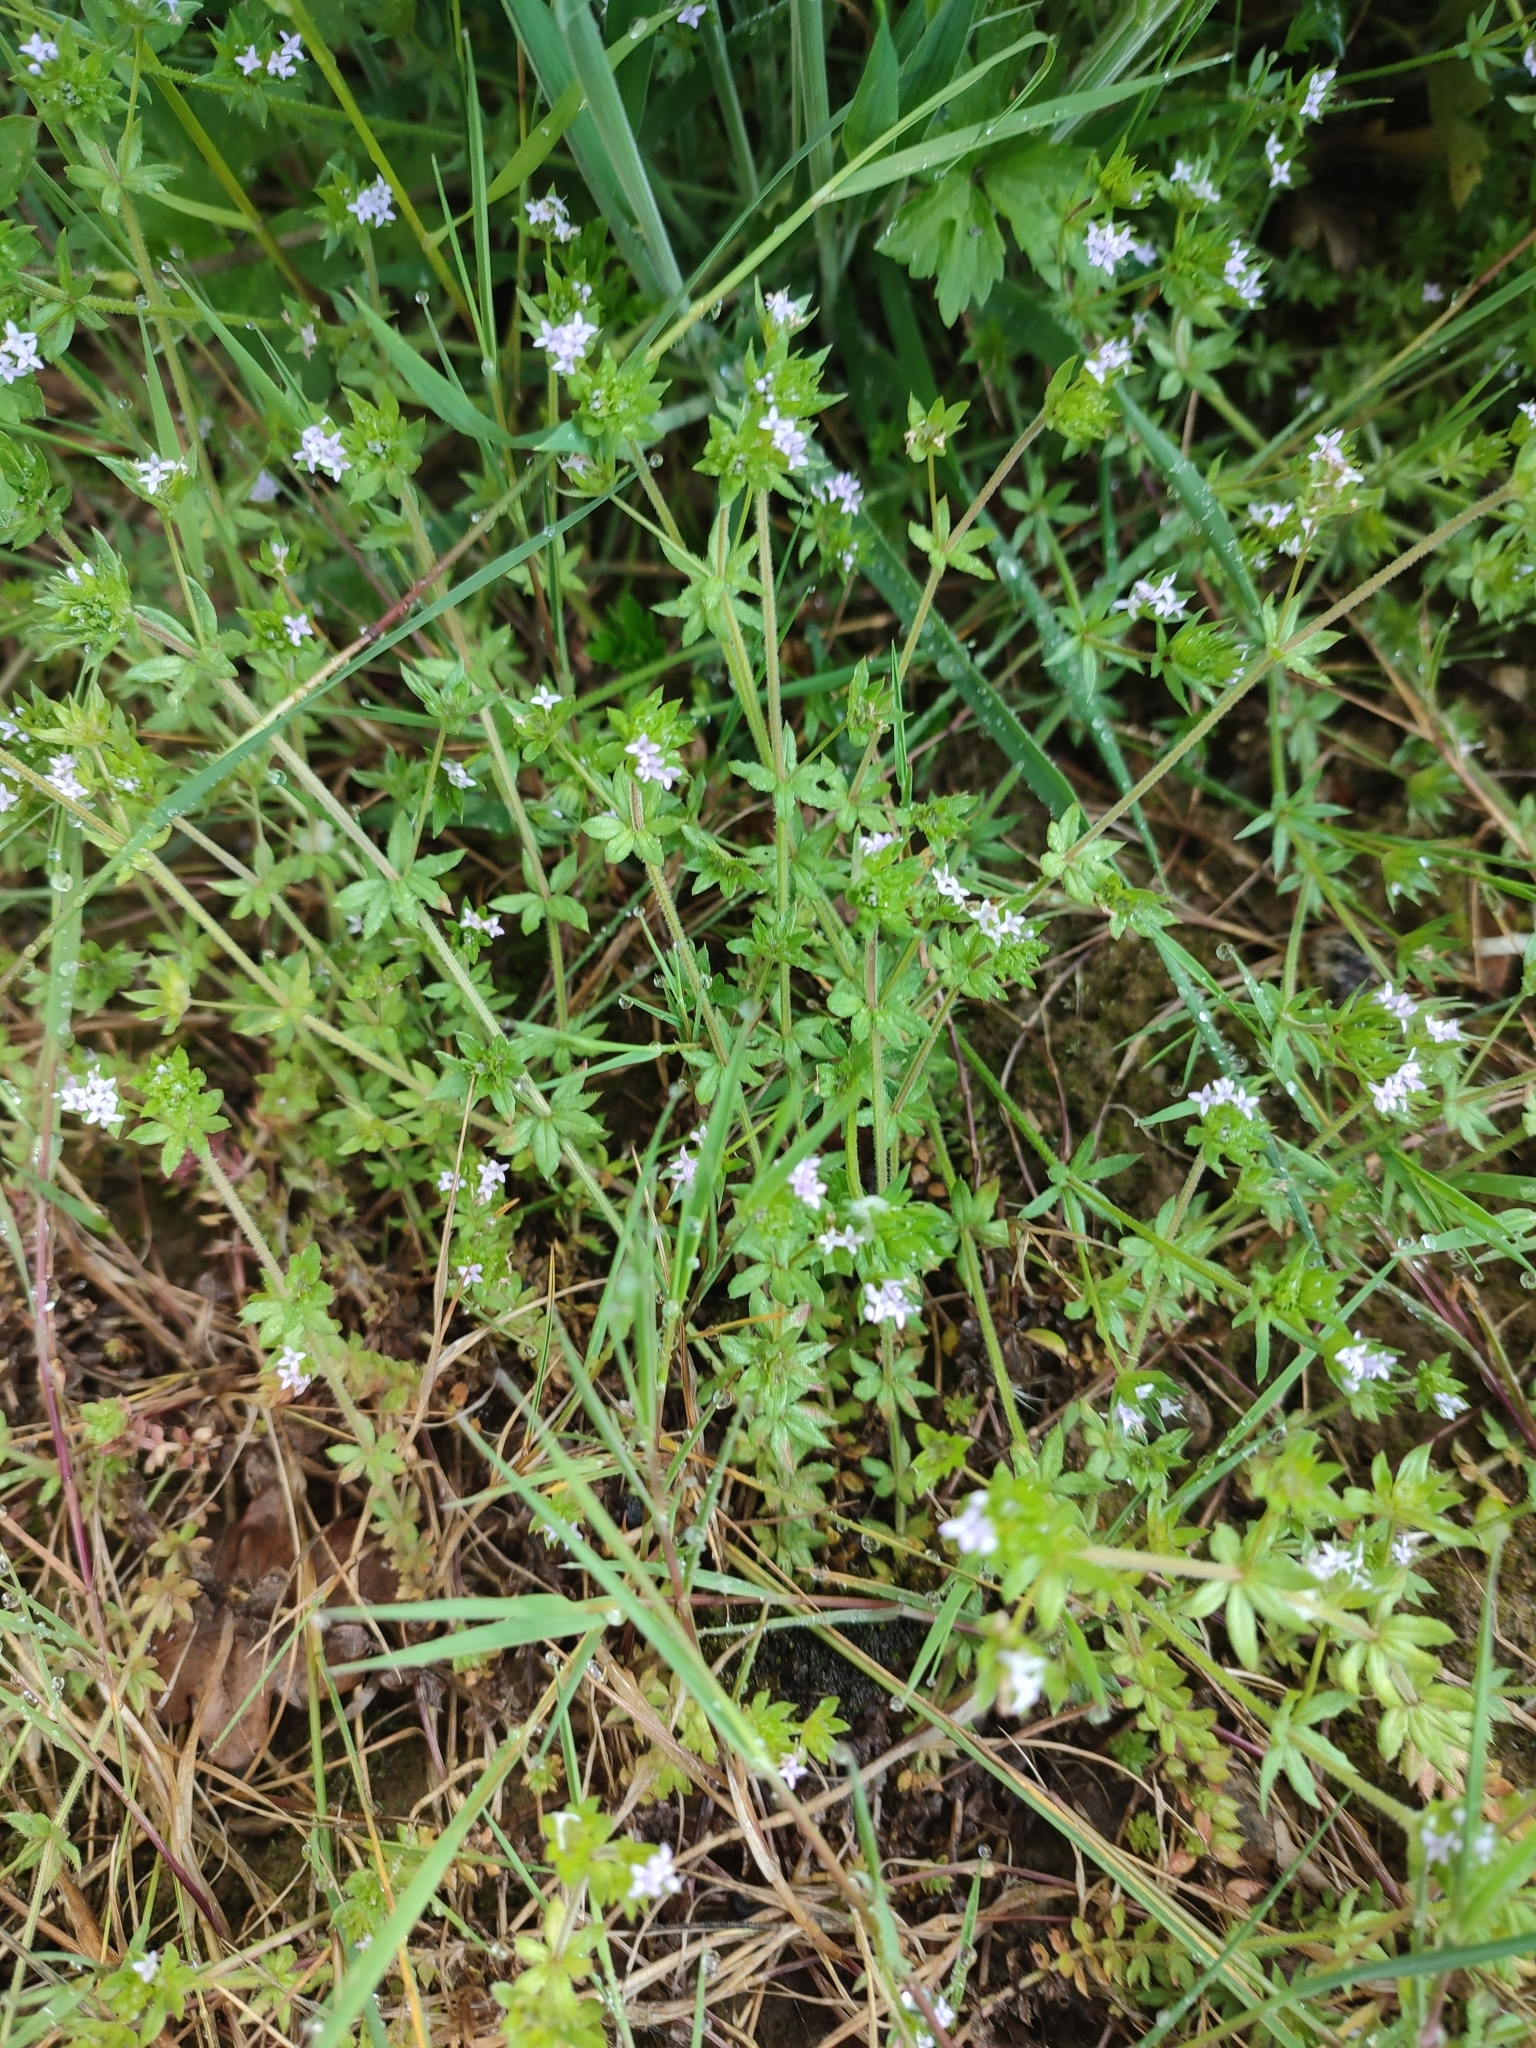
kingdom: Plantae
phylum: Tracheophyta
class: Magnoliopsida
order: Gentianales
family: Rubiaceae
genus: Sherardia
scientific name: Sherardia arvensis
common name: Field madder
